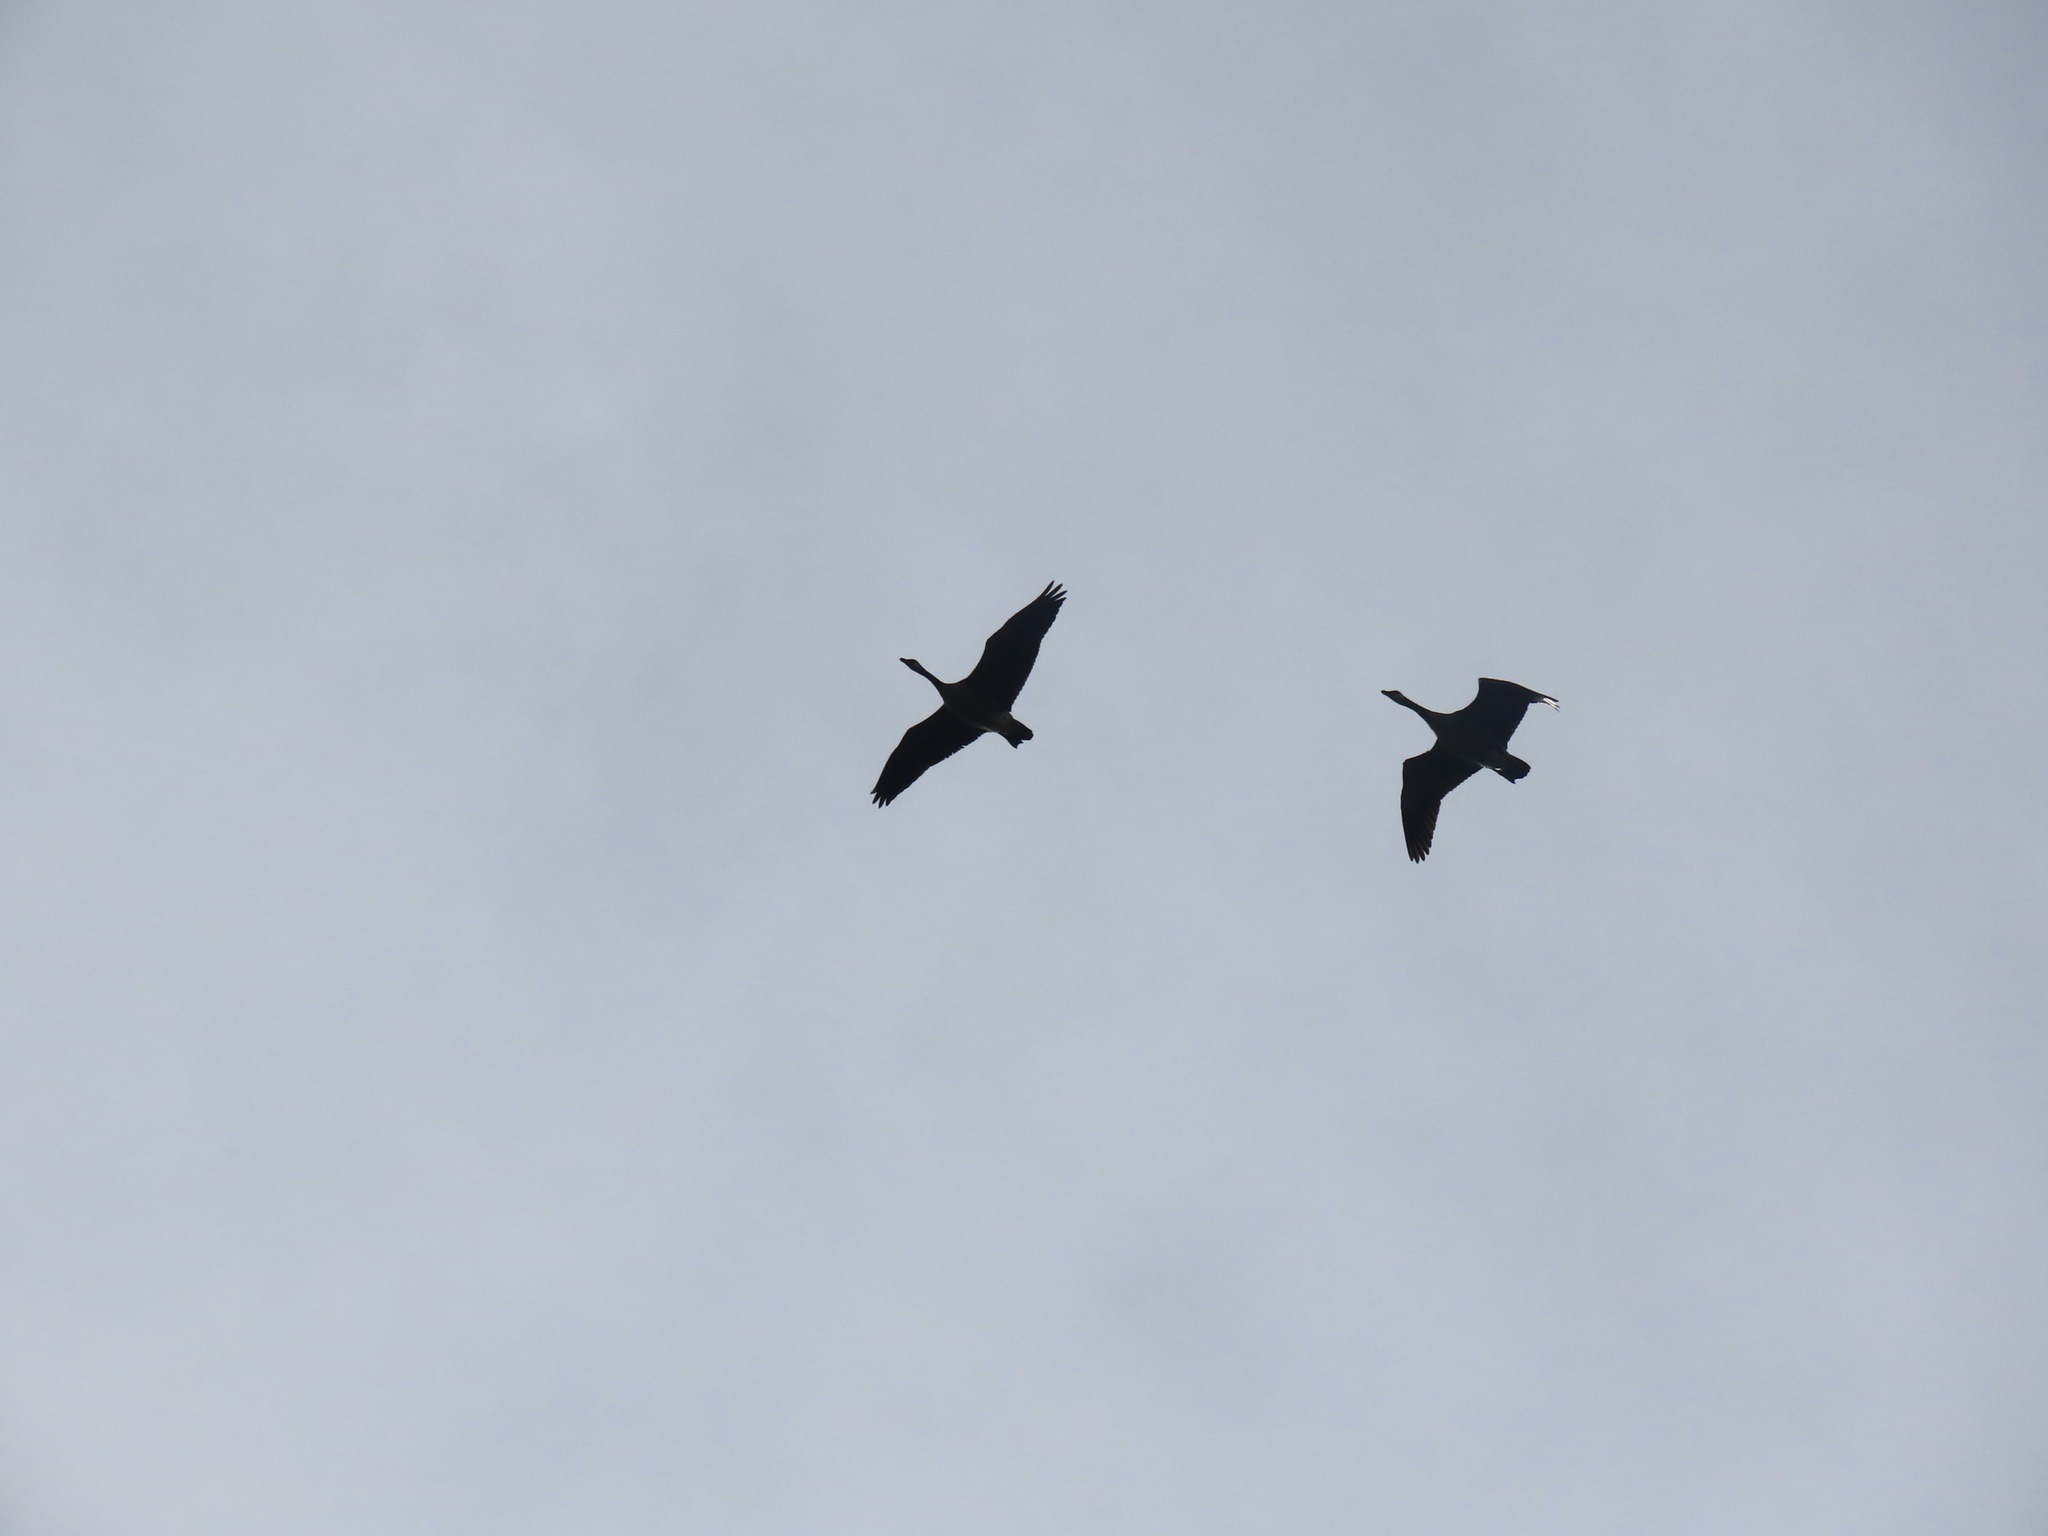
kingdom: Animalia
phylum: Chordata
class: Aves
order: Anseriformes
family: Anatidae
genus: Branta
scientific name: Branta canadensis
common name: Canada goose
